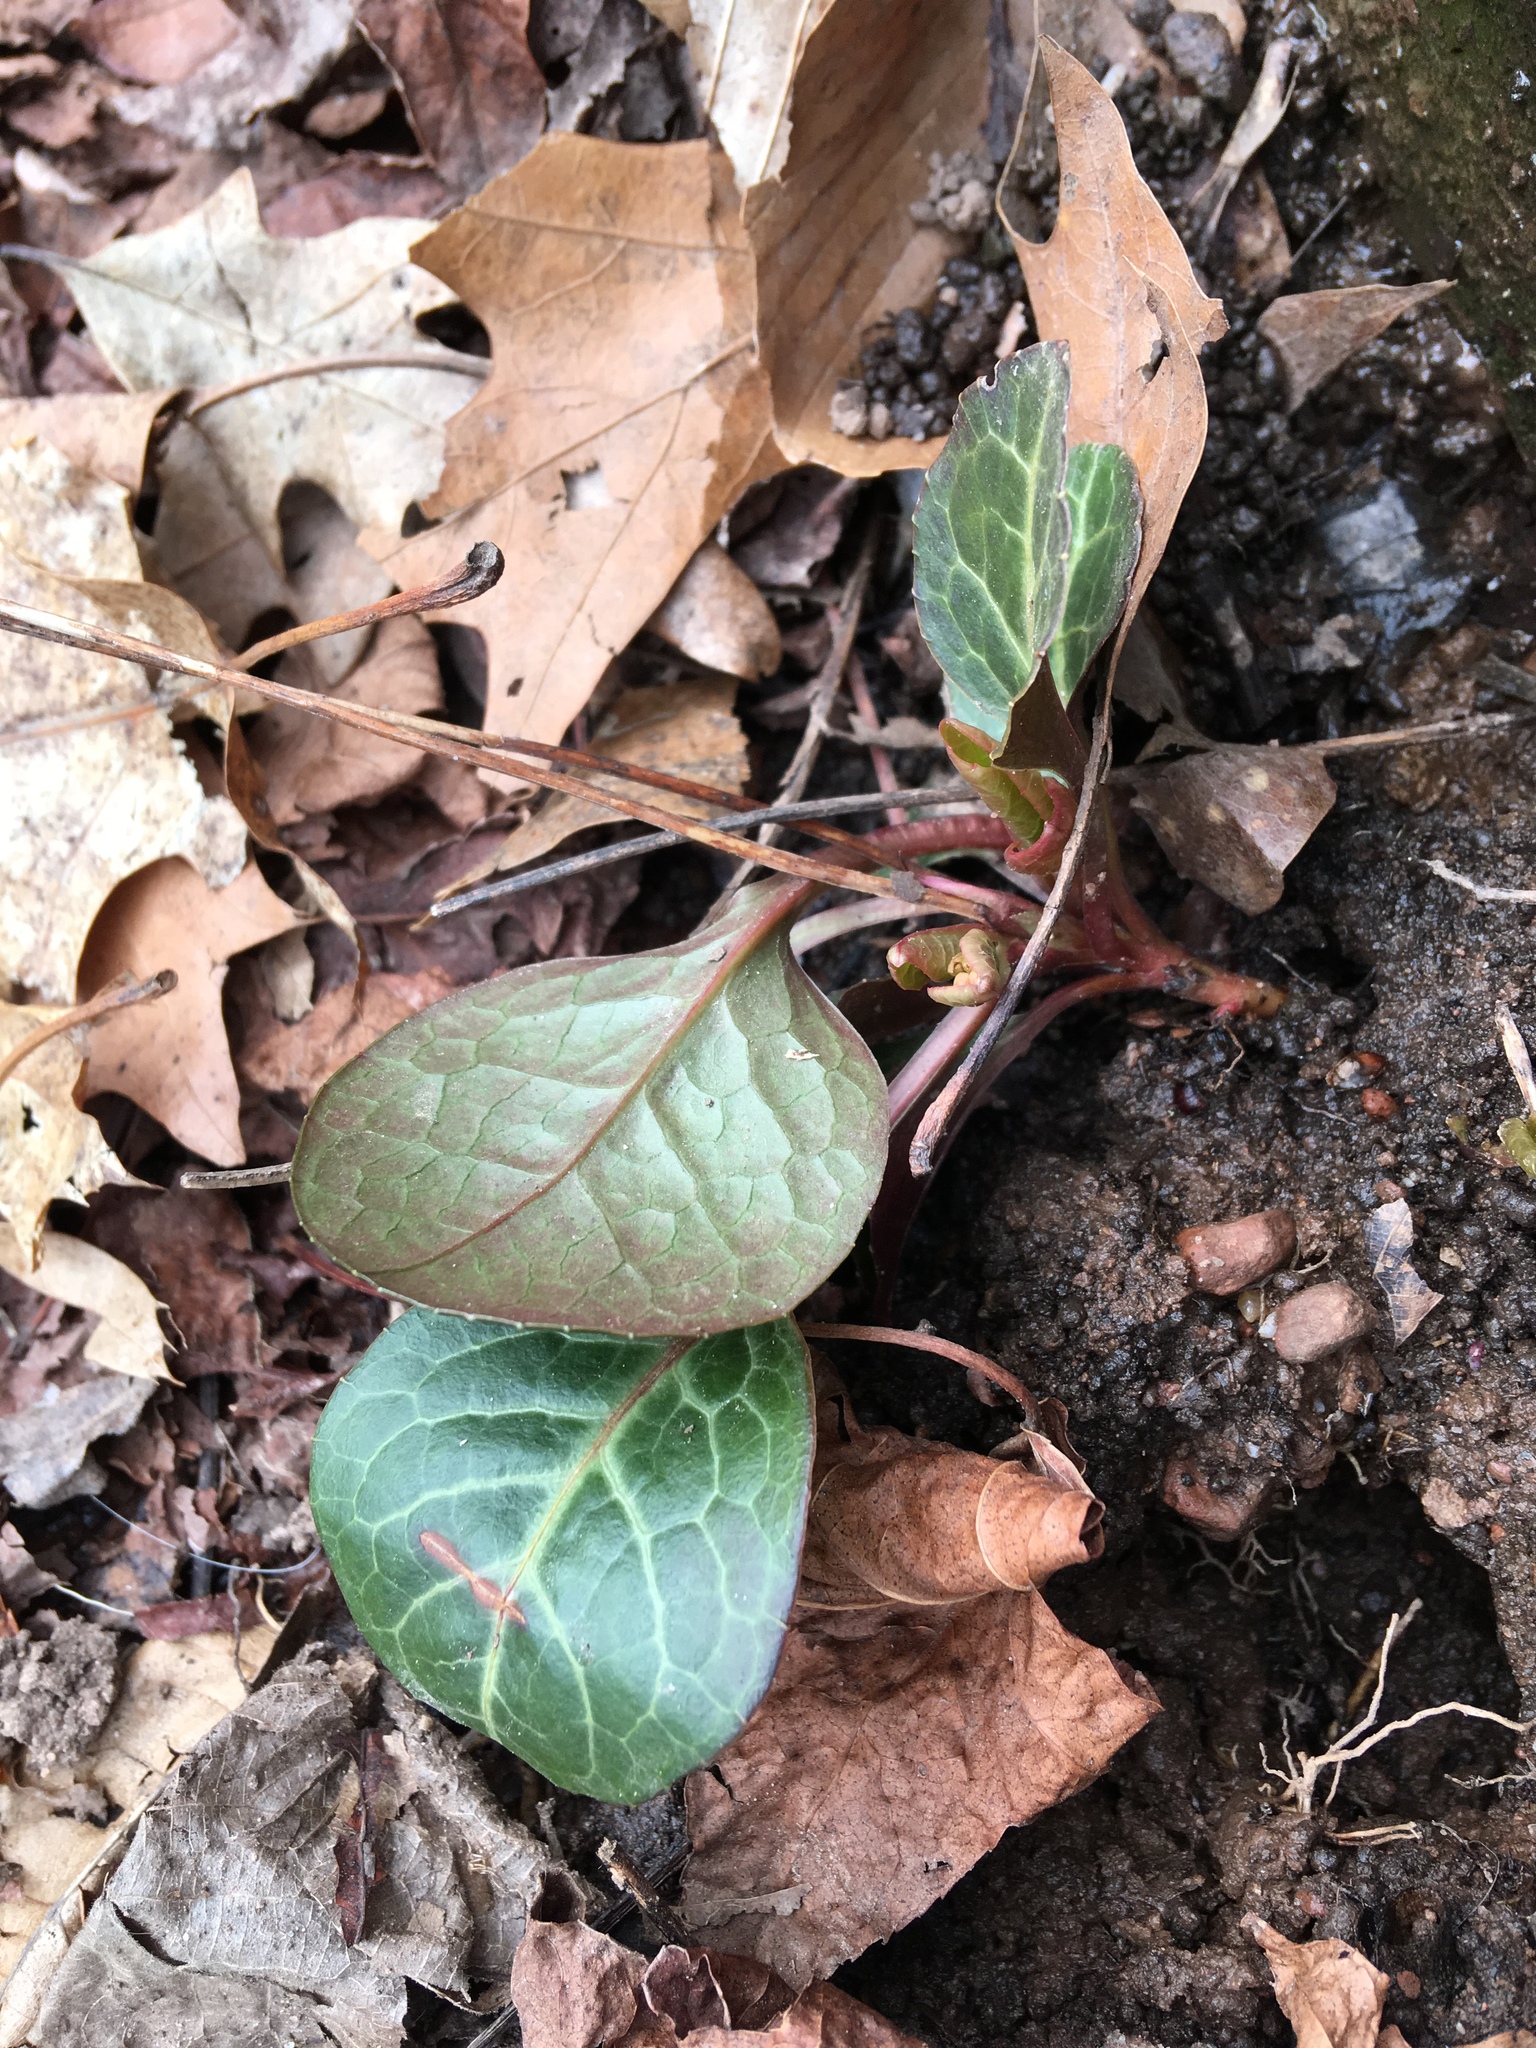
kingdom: Plantae
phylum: Tracheophyta
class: Magnoliopsida
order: Ericales
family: Ericaceae
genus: Pyrola
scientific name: Pyrola americana
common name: American wintergreen
